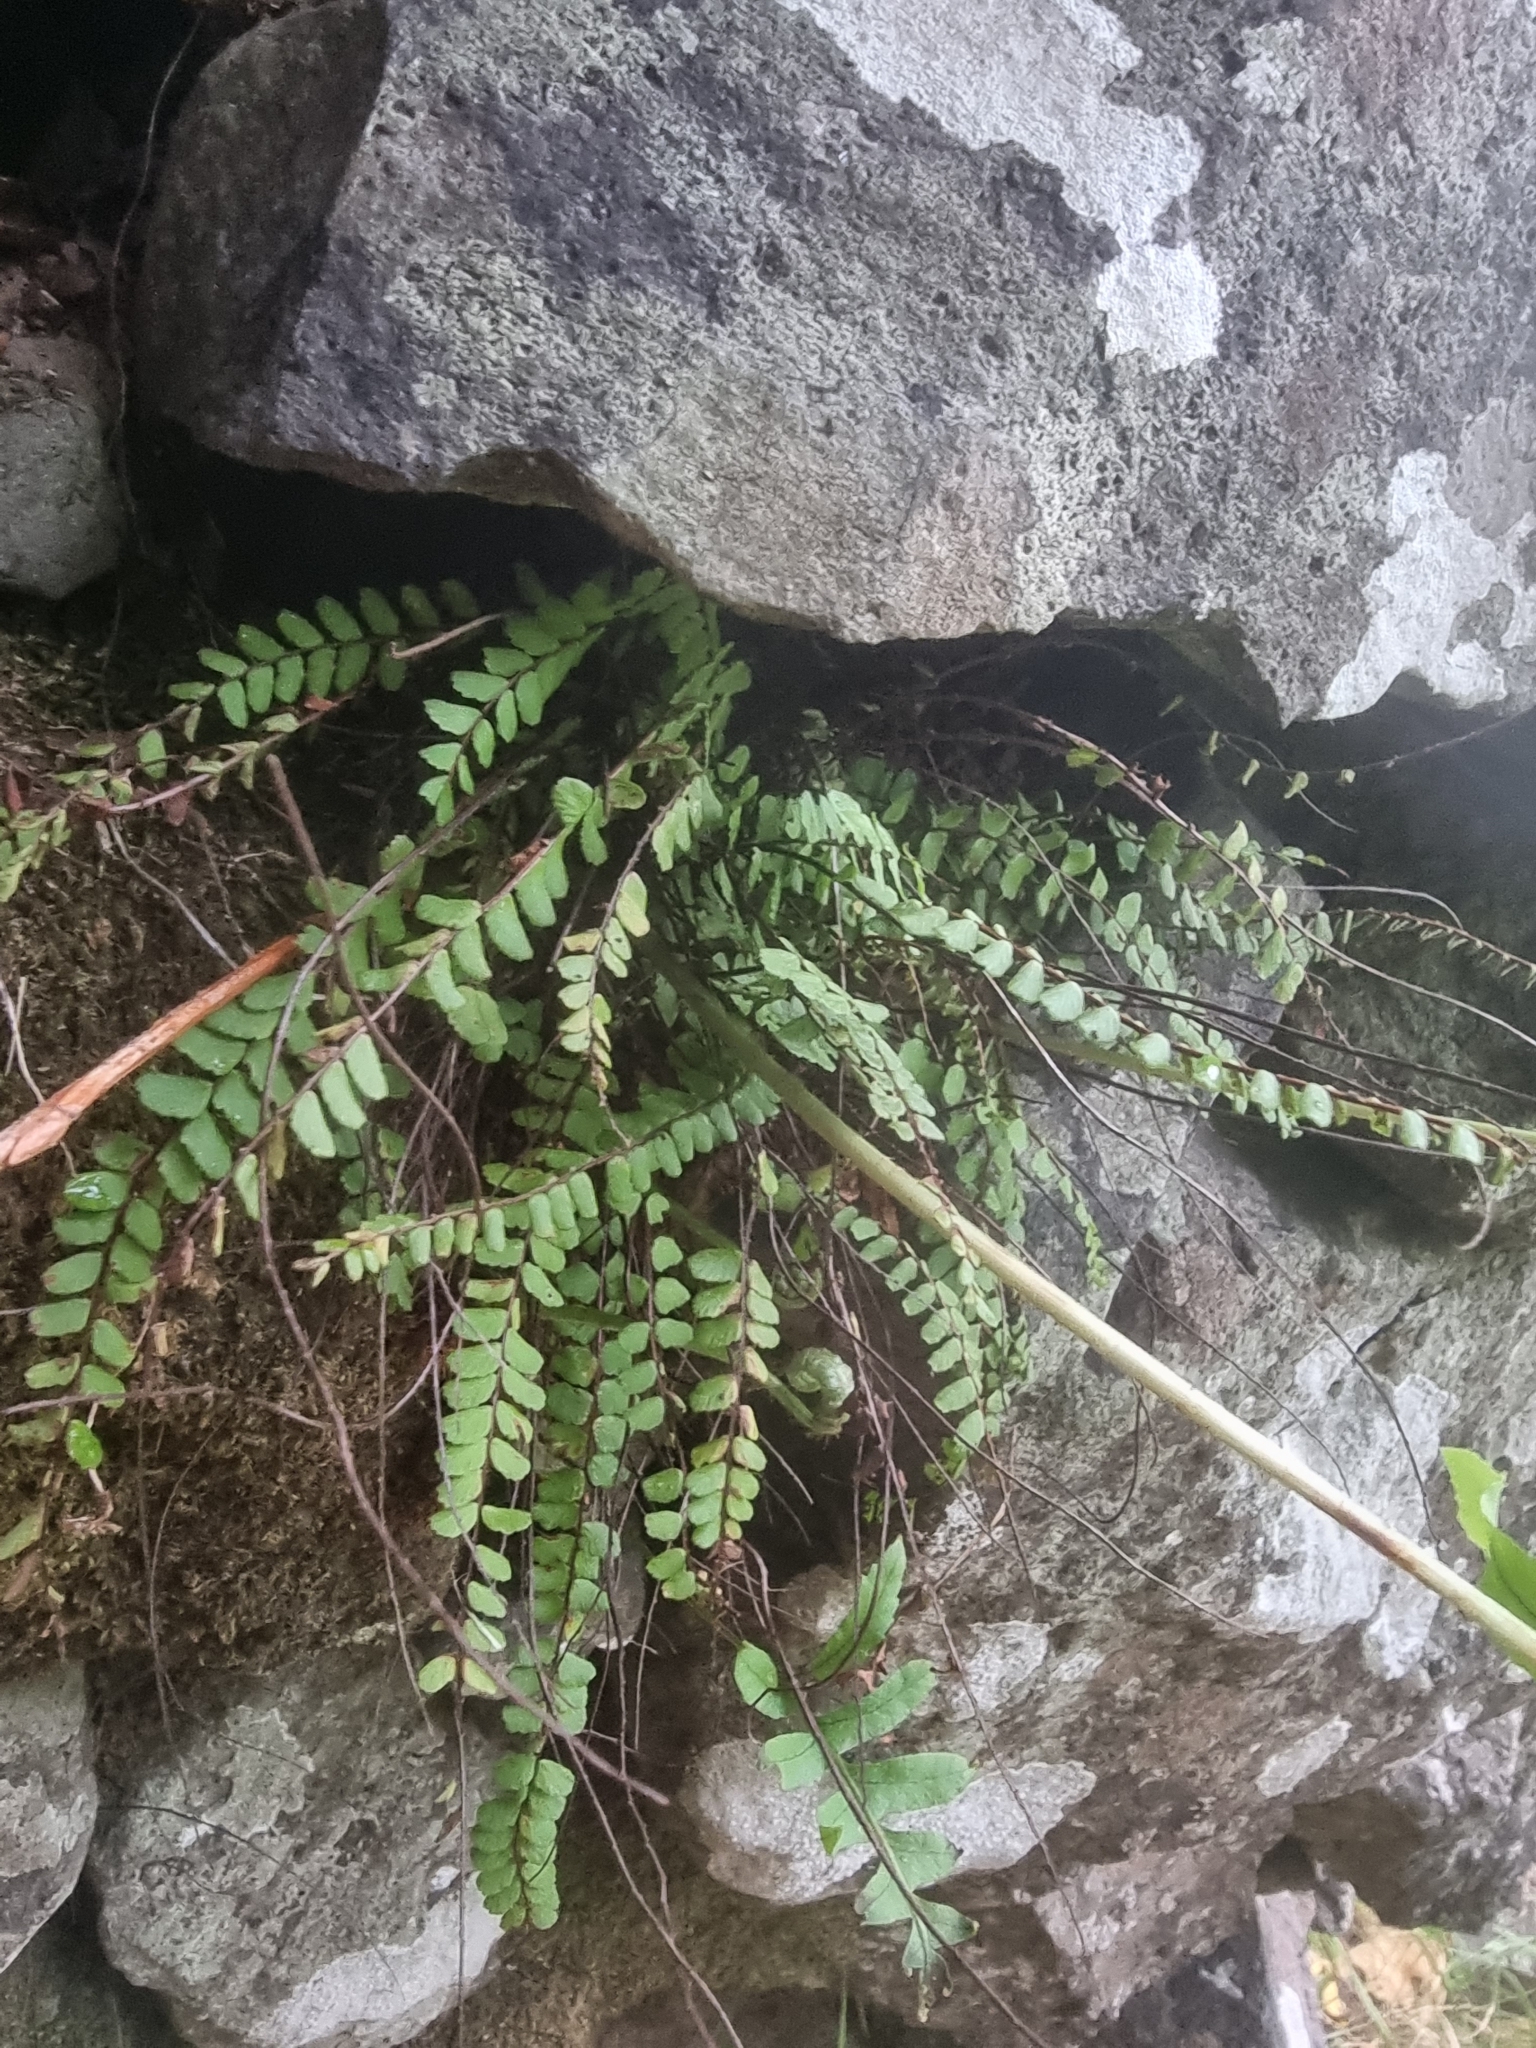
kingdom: Plantae
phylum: Tracheophyta
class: Polypodiopsida
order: Polypodiales
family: Aspleniaceae
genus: Asplenium
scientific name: Asplenium trichomanes
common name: Maidenhair spleenwort
